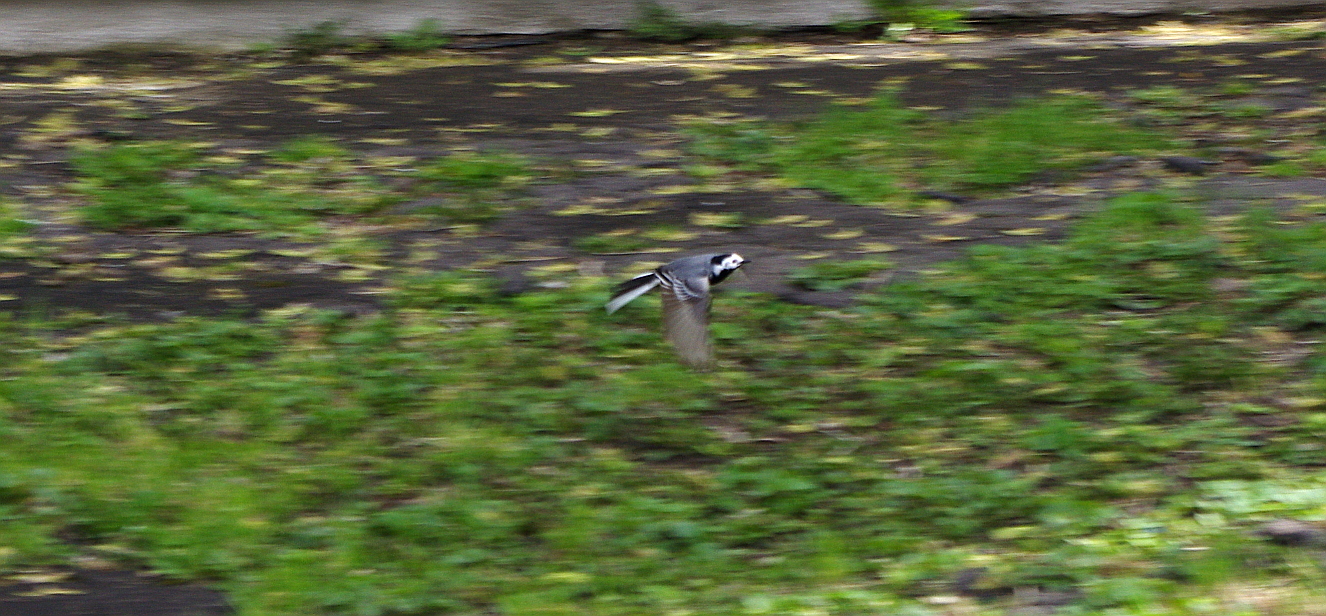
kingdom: Animalia
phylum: Chordata
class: Aves
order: Passeriformes
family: Motacillidae
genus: Motacilla
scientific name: Motacilla alba
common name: White wagtail
